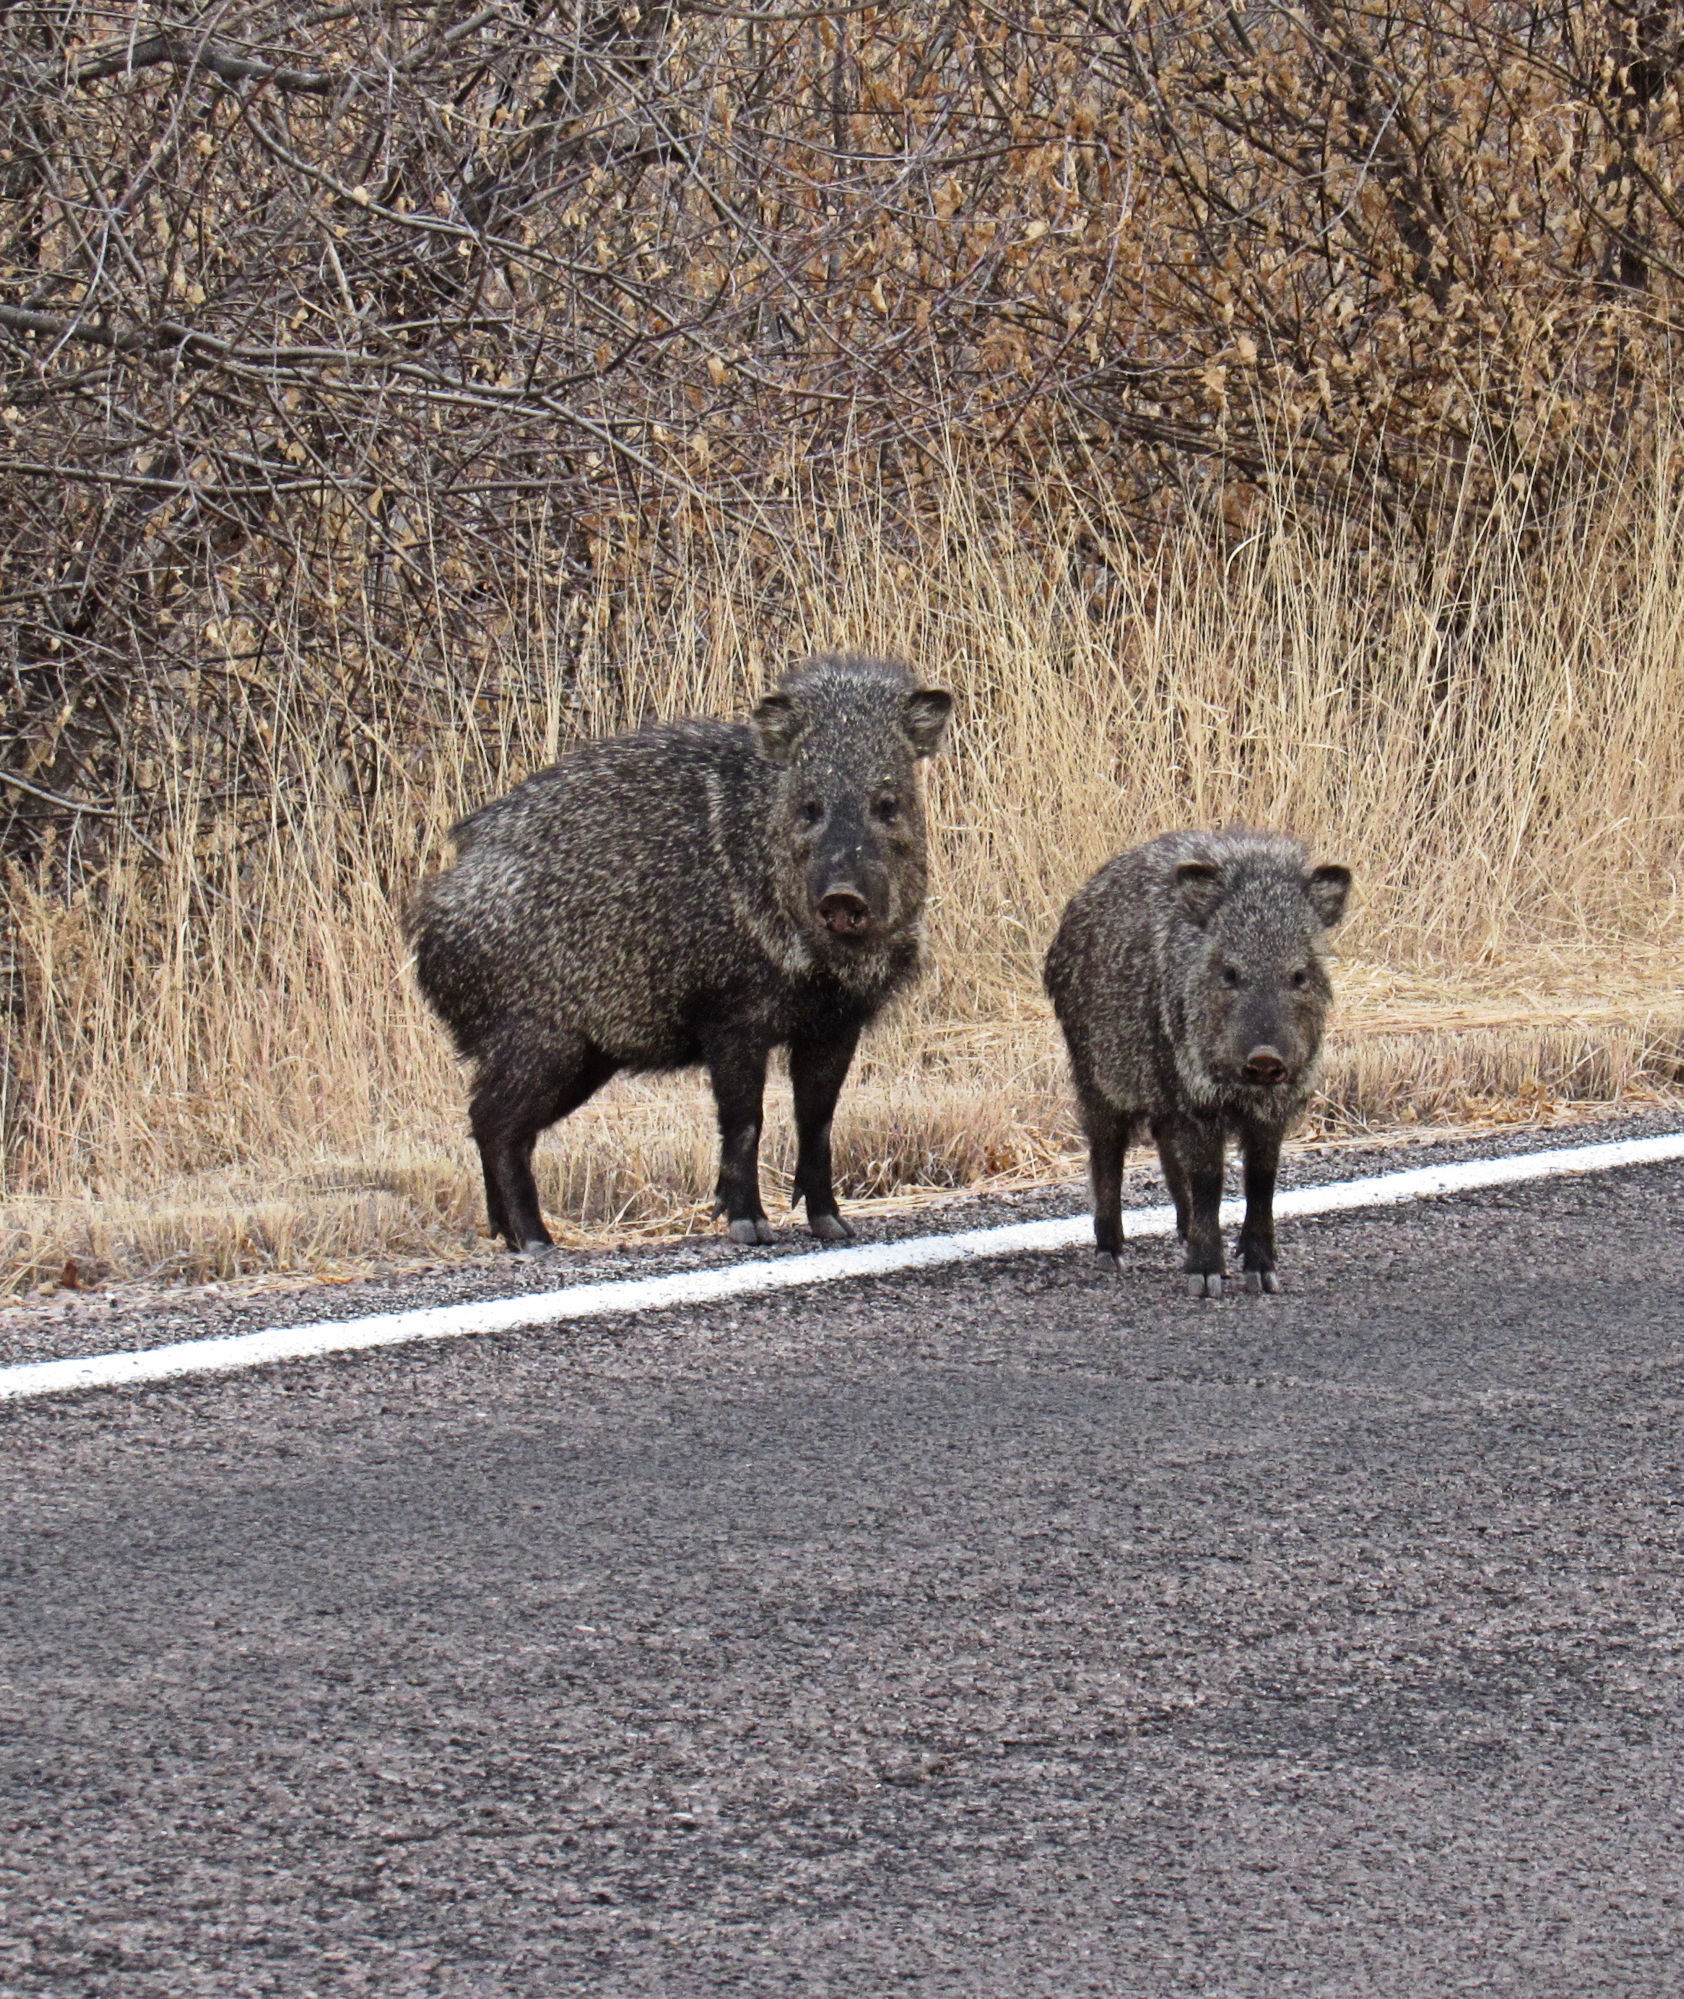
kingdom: Animalia
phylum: Chordata
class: Mammalia
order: Artiodactyla
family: Tayassuidae
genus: Pecari
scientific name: Pecari tajacu
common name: Collared peccary
